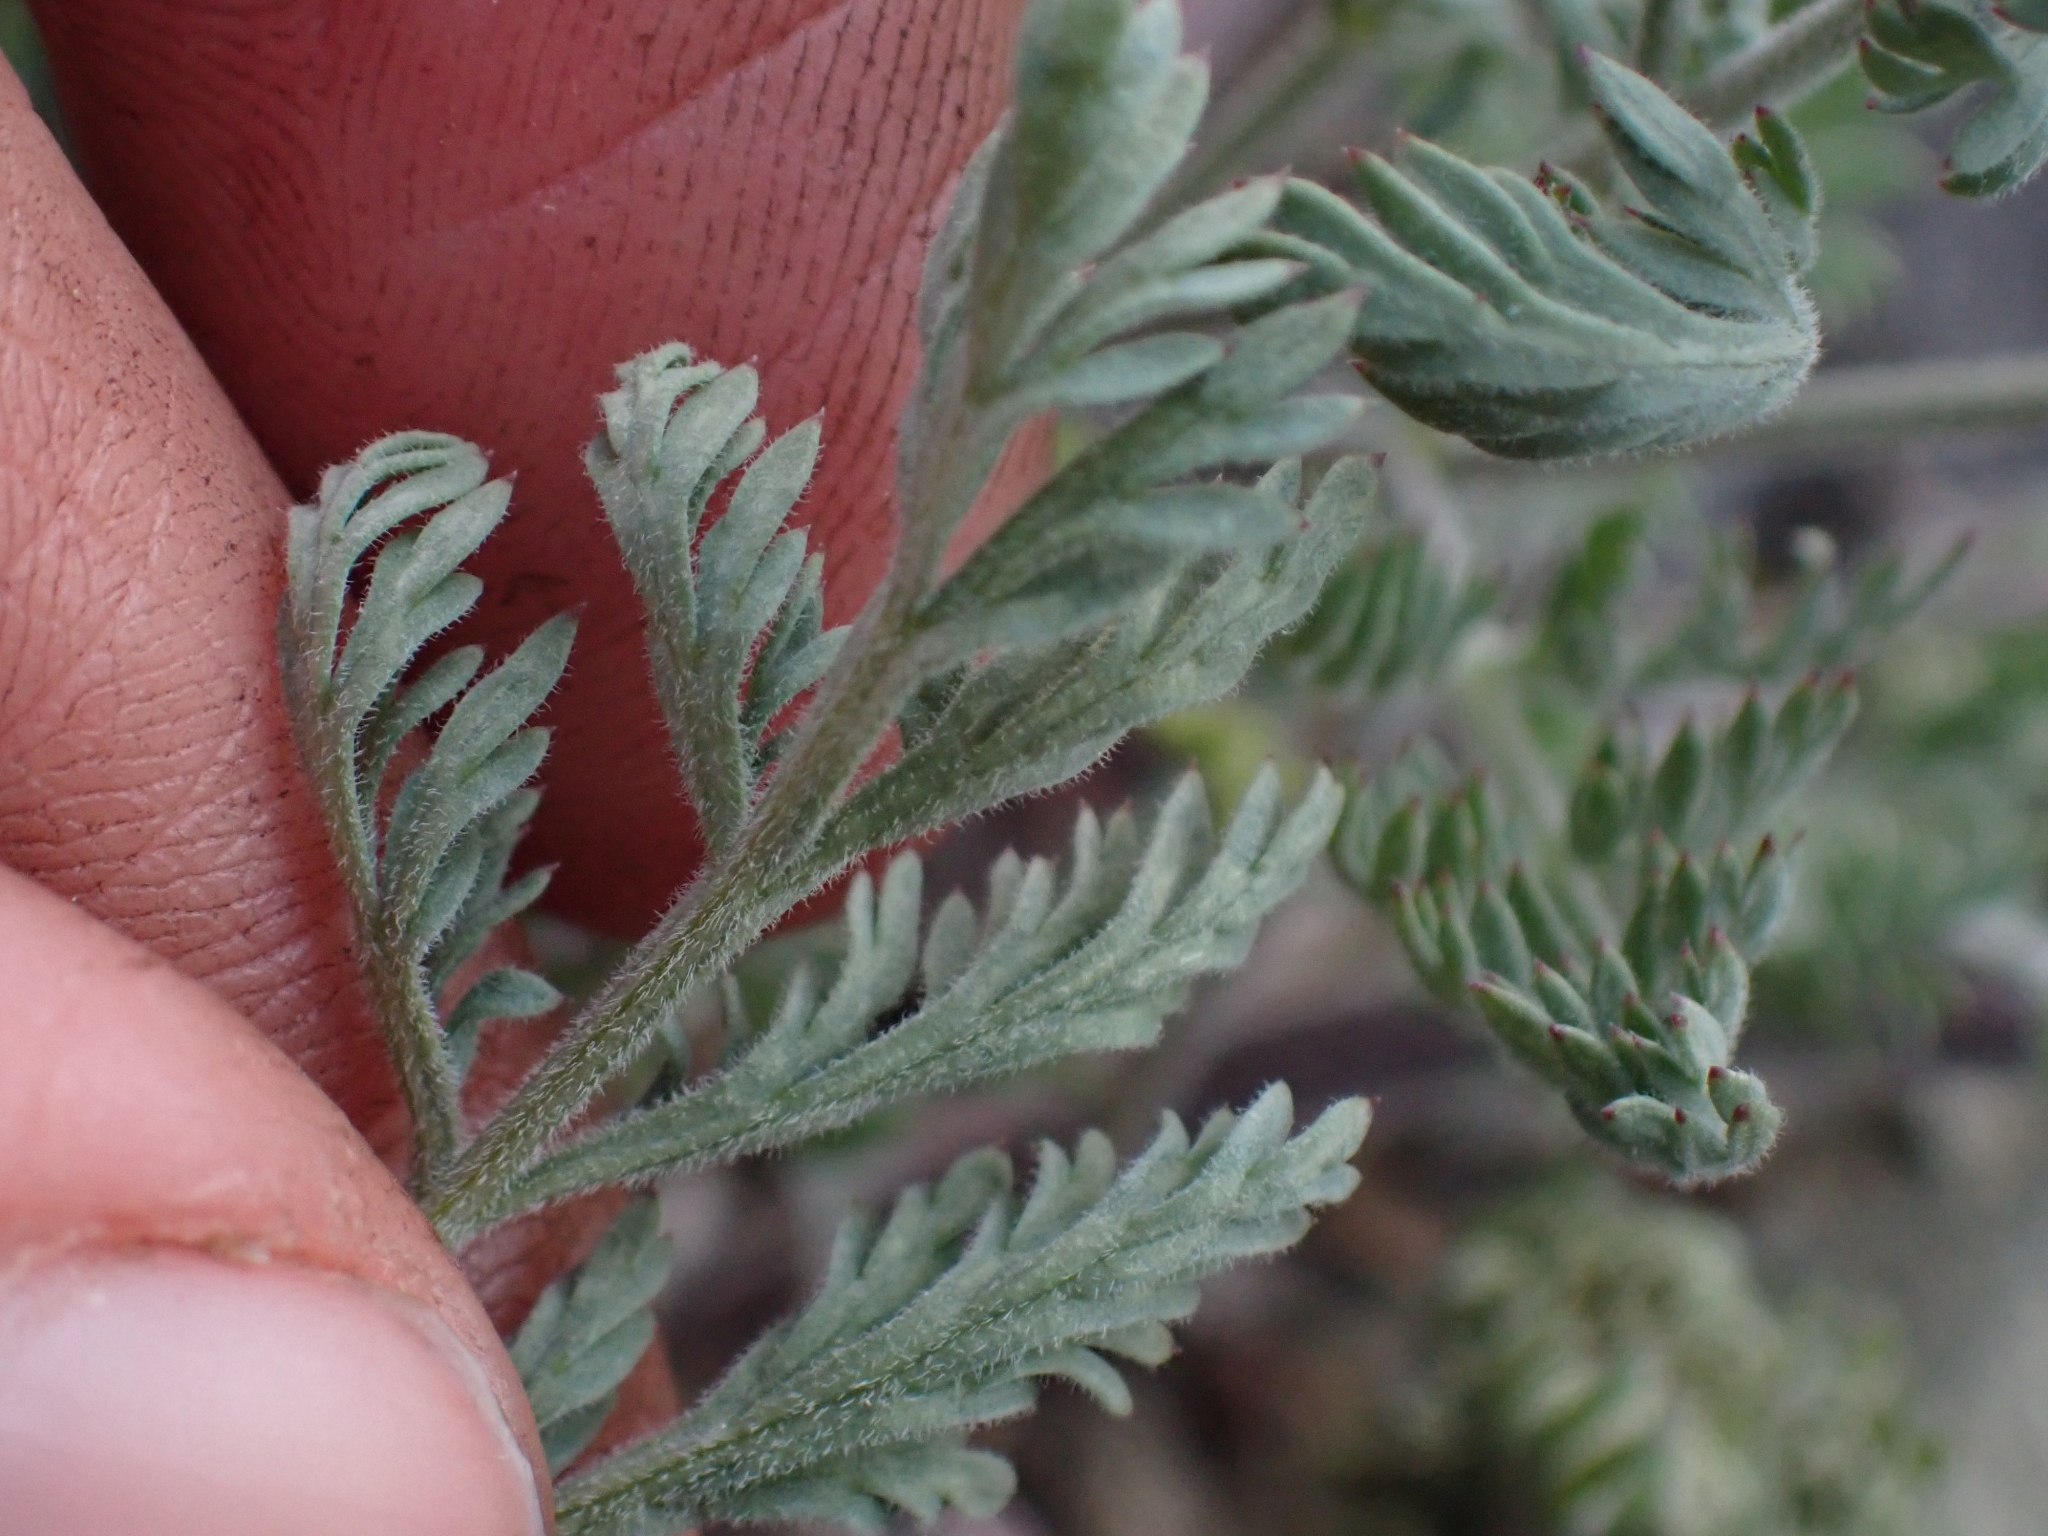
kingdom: Plantae
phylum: Tracheophyta
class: Magnoliopsida
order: Apiales
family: Apiaceae
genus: Lomatium
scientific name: Lomatium macrocarpum
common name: Big-seed biscuitroot
